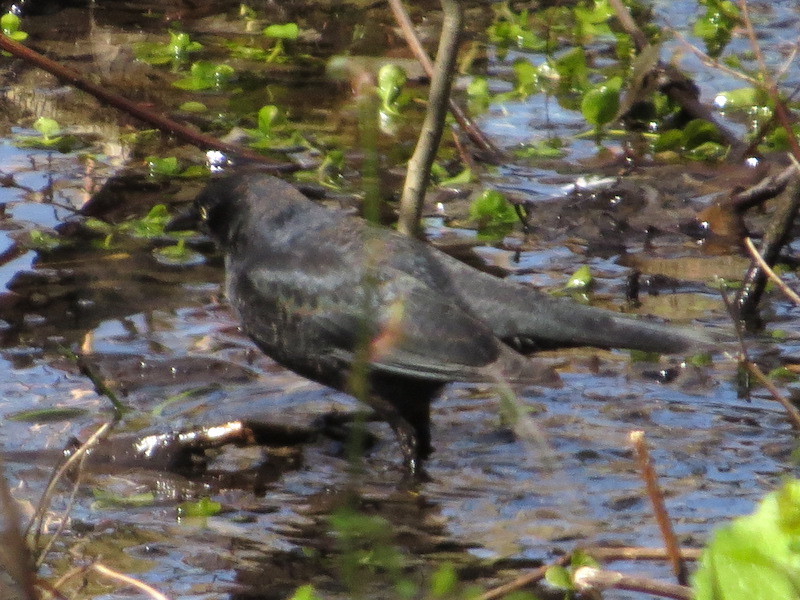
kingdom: Animalia
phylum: Chordata
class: Aves
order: Passeriformes
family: Icteridae
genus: Euphagus
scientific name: Euphagus carolinus
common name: Rusty blackbird
